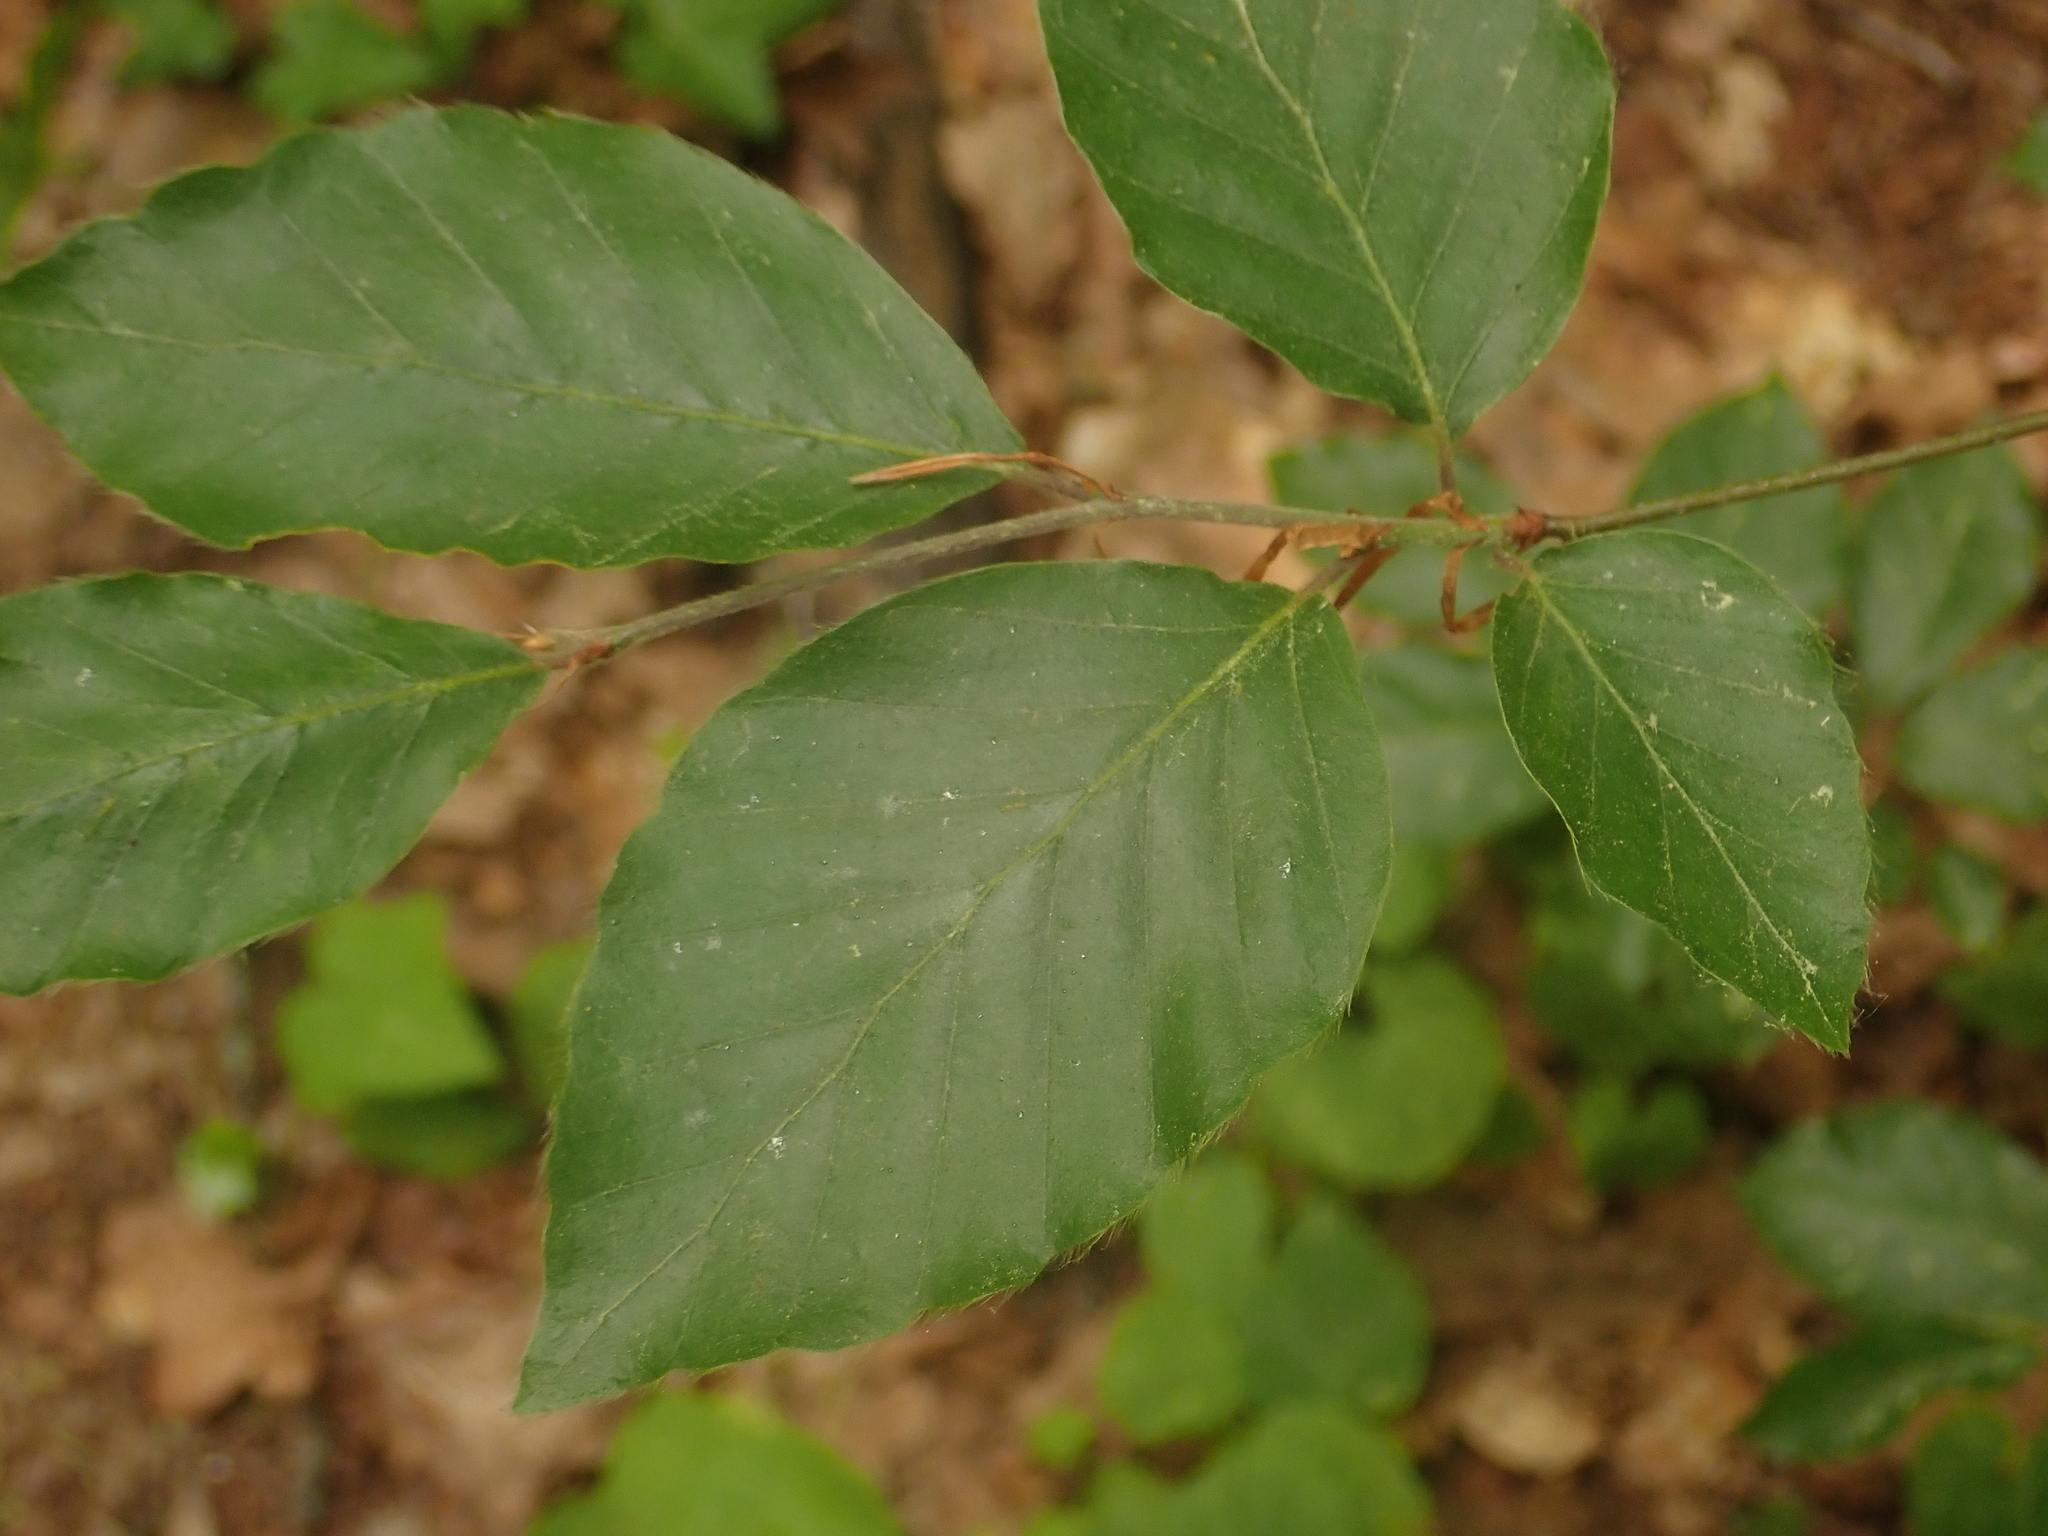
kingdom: Plantae
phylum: Tracheophyta
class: Magnoliopsida
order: Fagales
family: Fagaceae
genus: Fagus
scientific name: Fagus sylvatica
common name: Beech
